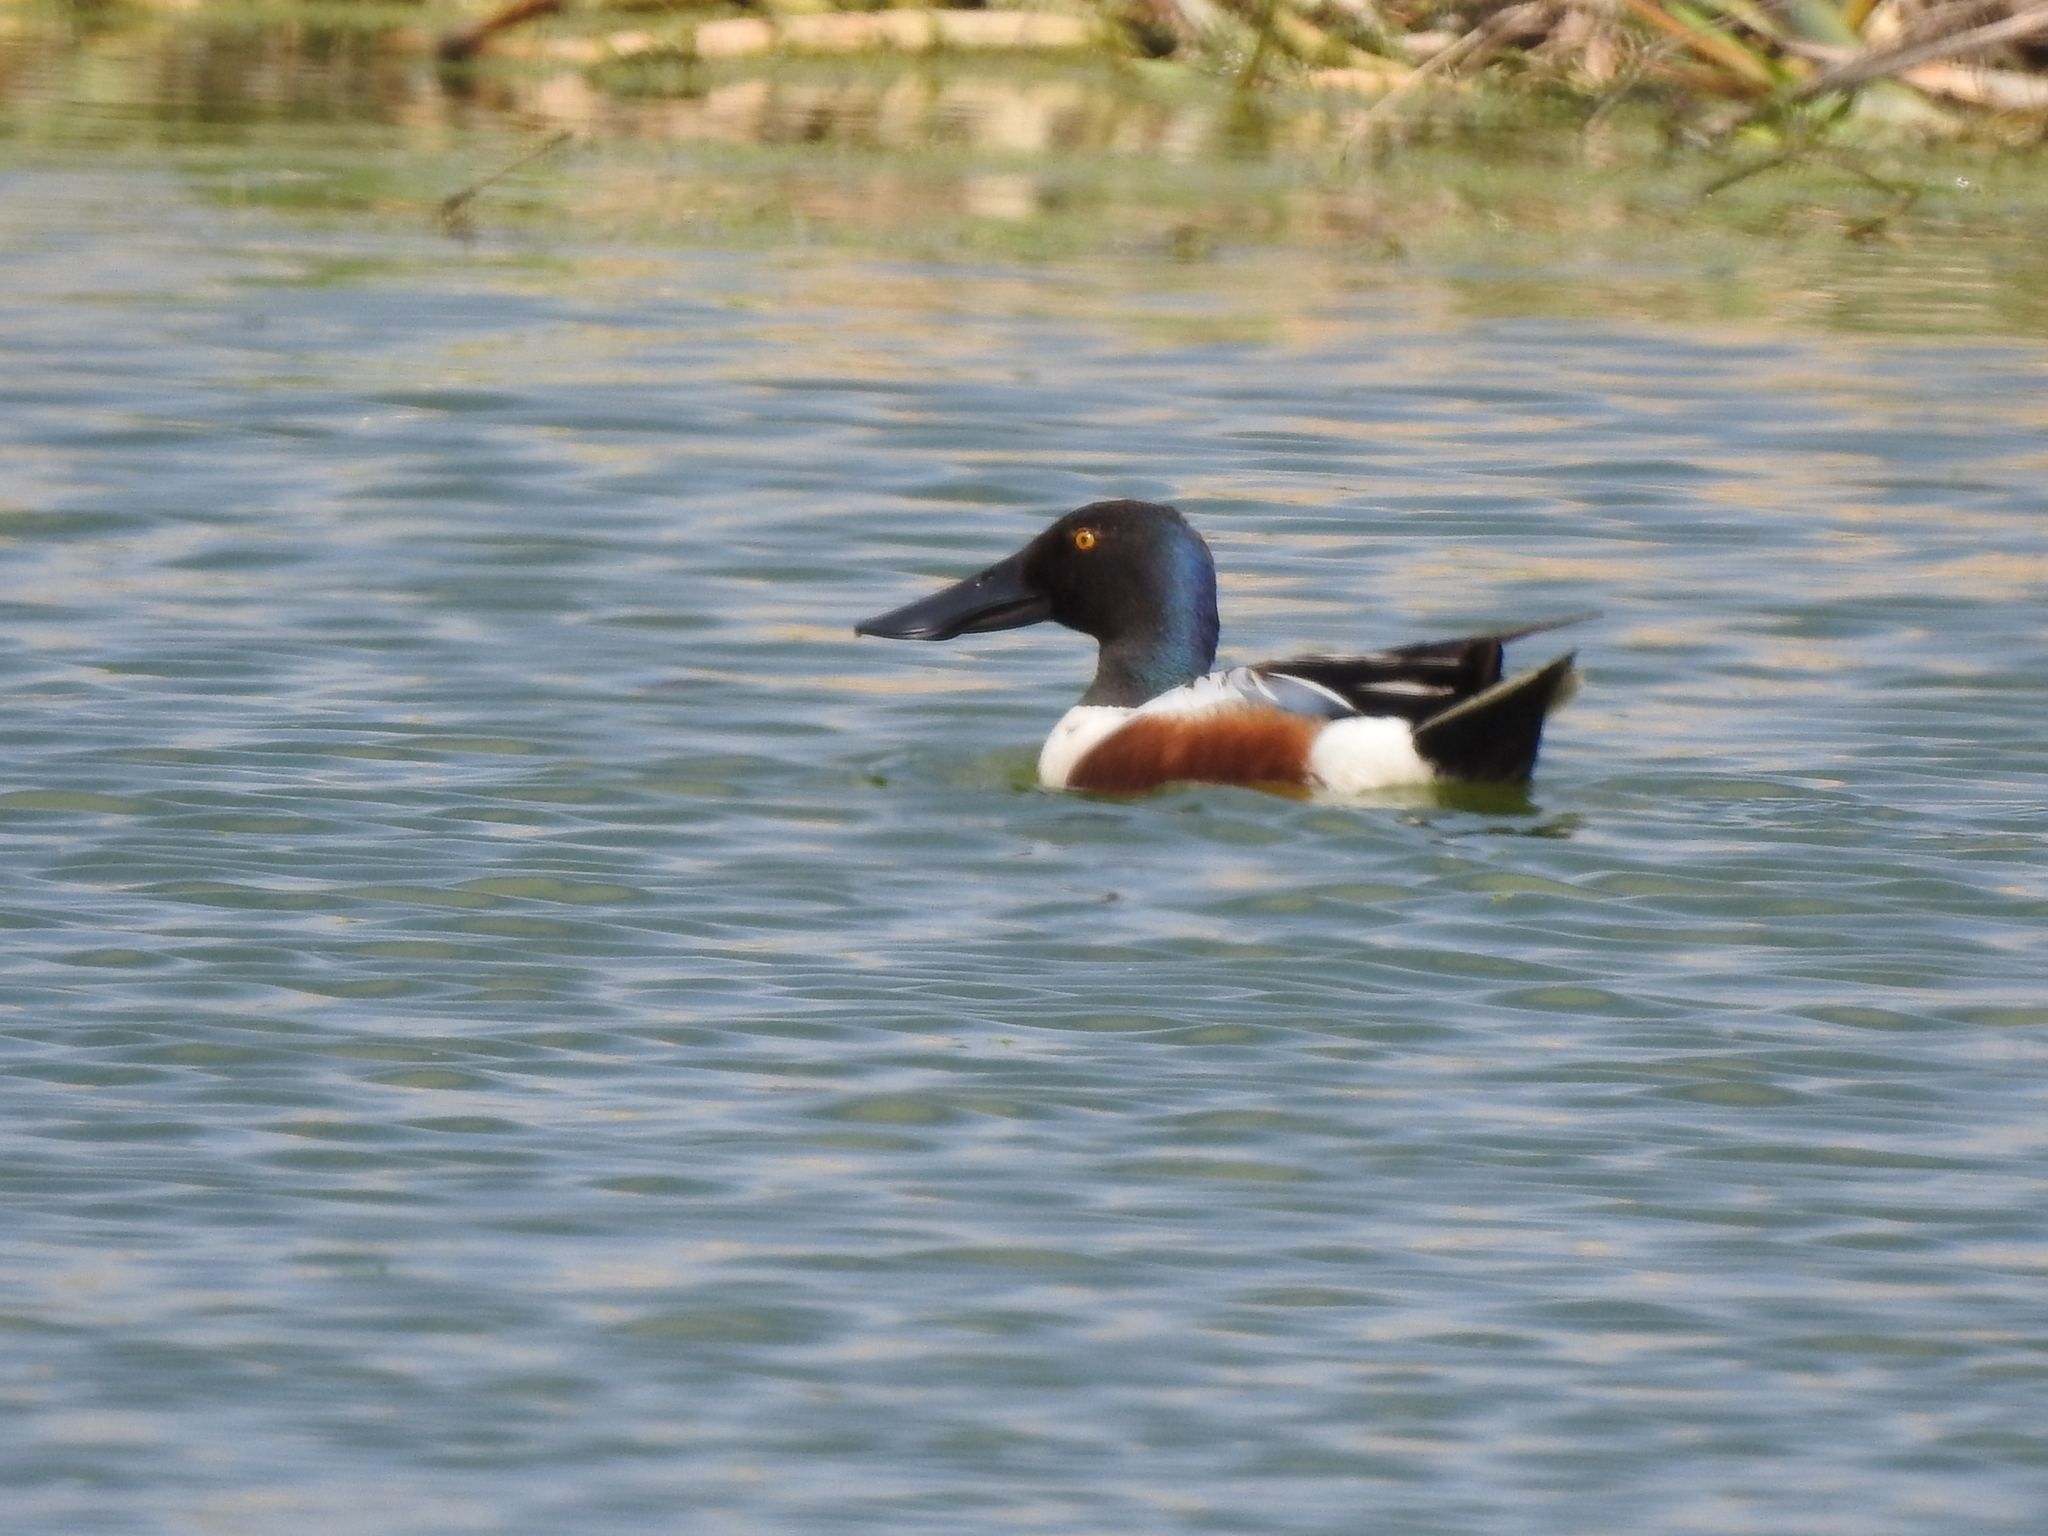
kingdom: Animalia
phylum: Chordata
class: Aves
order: Anseriformes
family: Anatidae
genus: Spatula
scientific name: Spatula clypeata
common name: Northern shoveler
